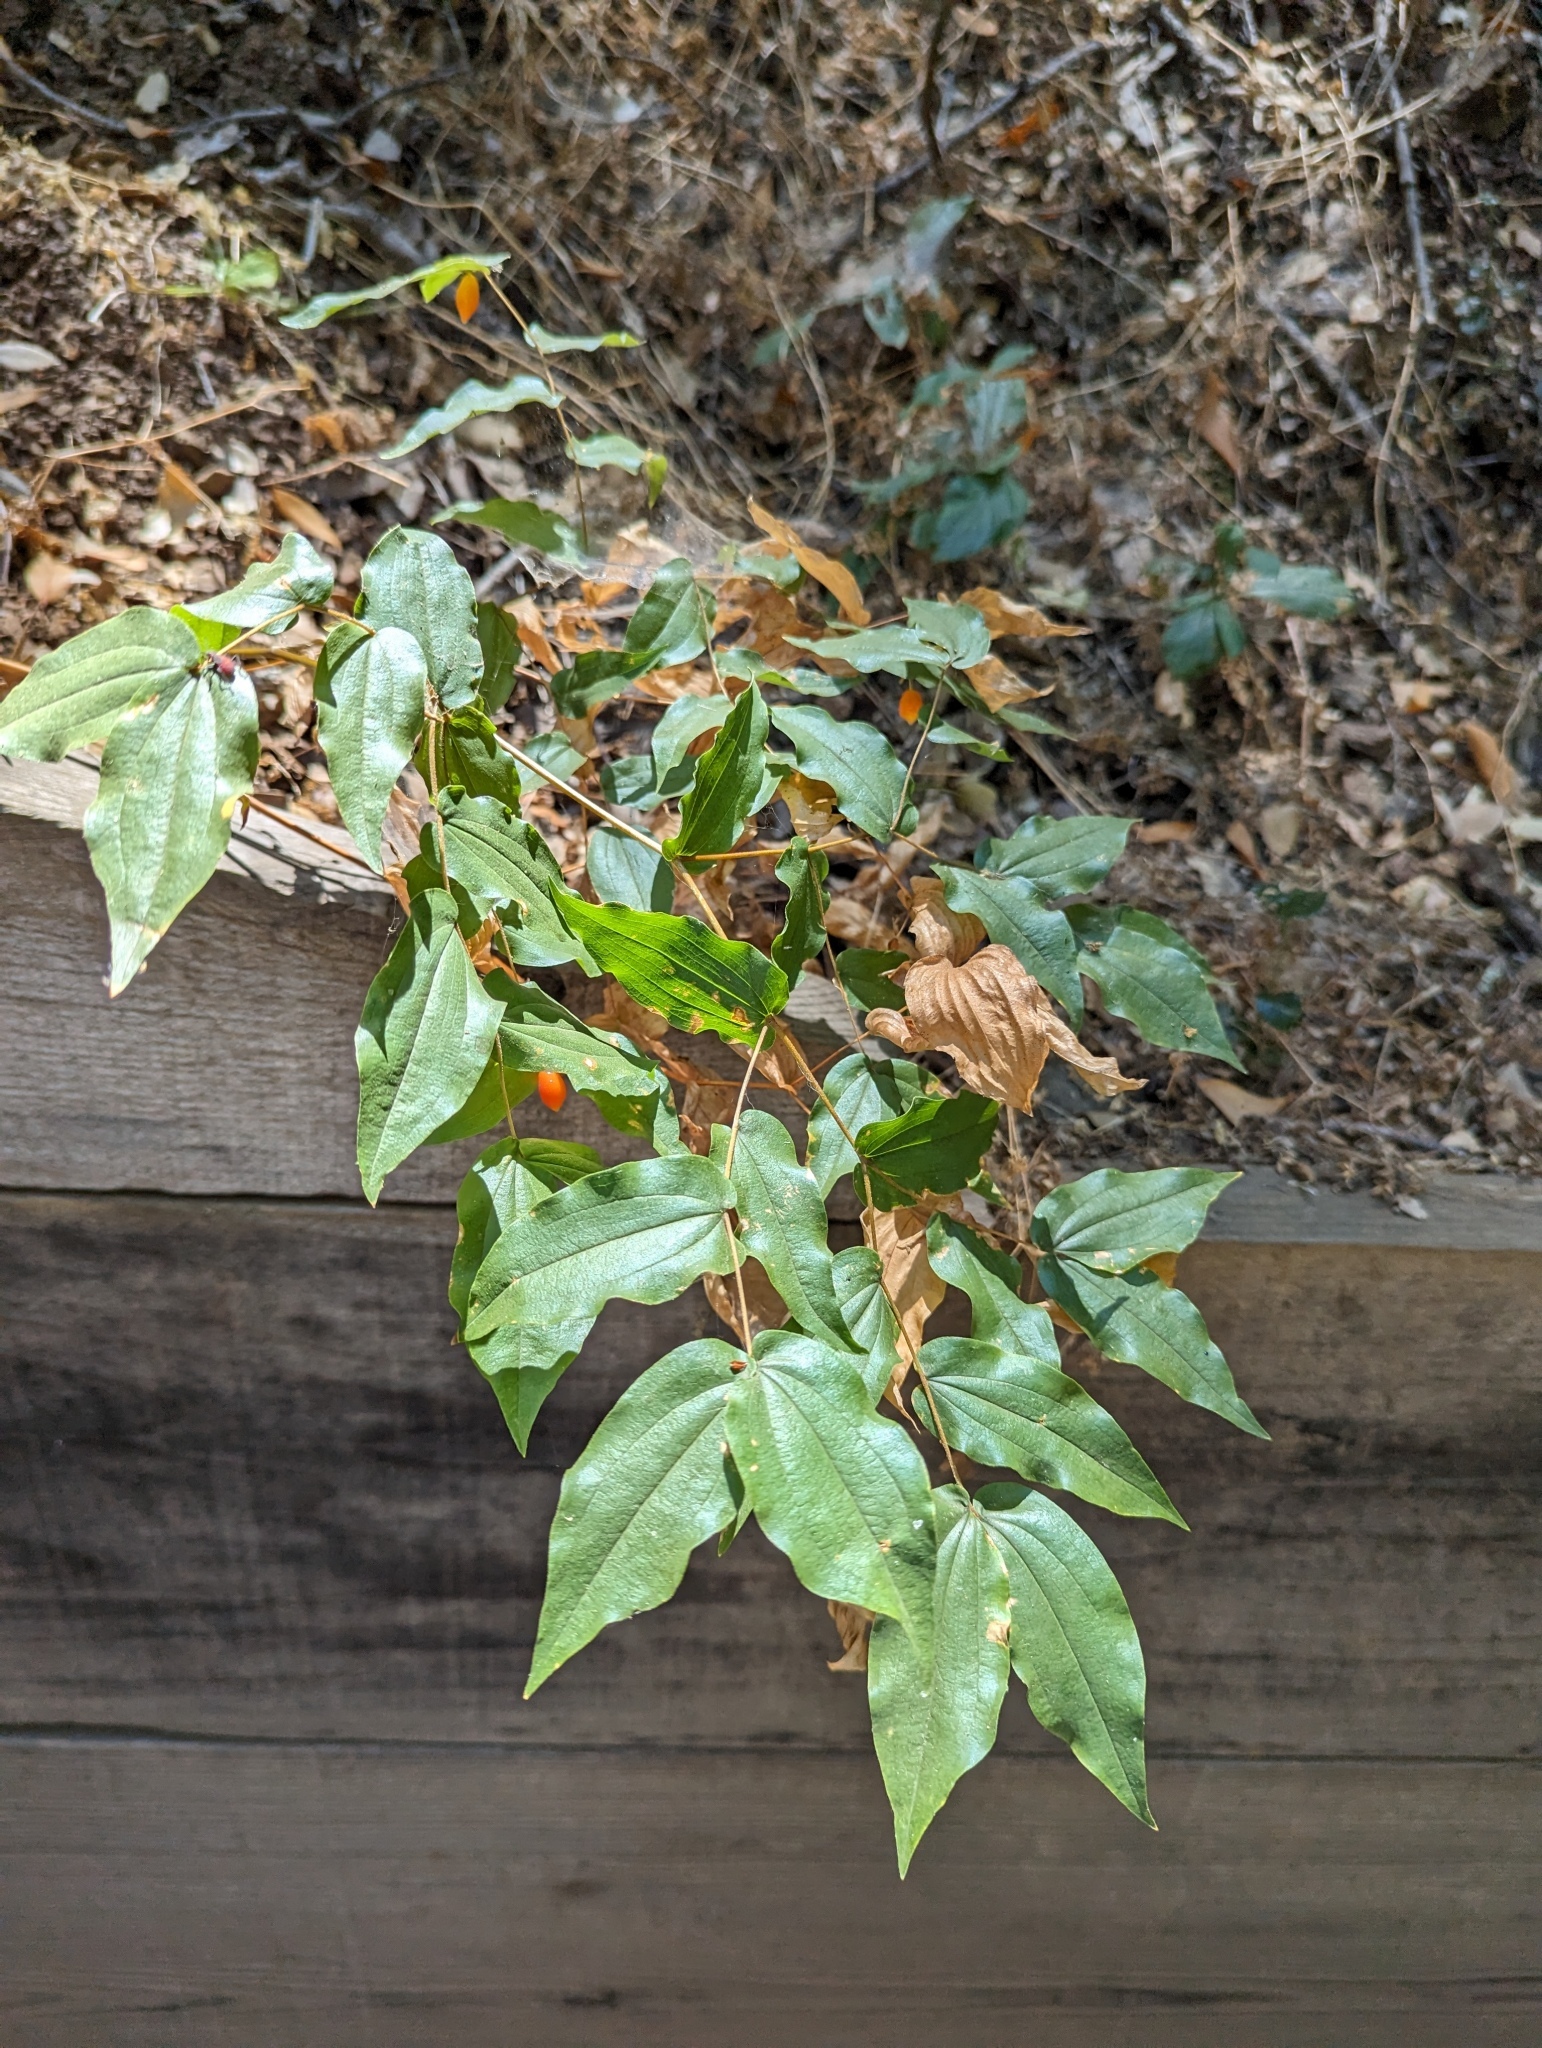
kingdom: Plantae
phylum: Tracheophyta
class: Liliopsida
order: Liliales
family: Liliaceae
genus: Prosartes
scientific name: Prosartes hookeri
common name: Fairy-bells
